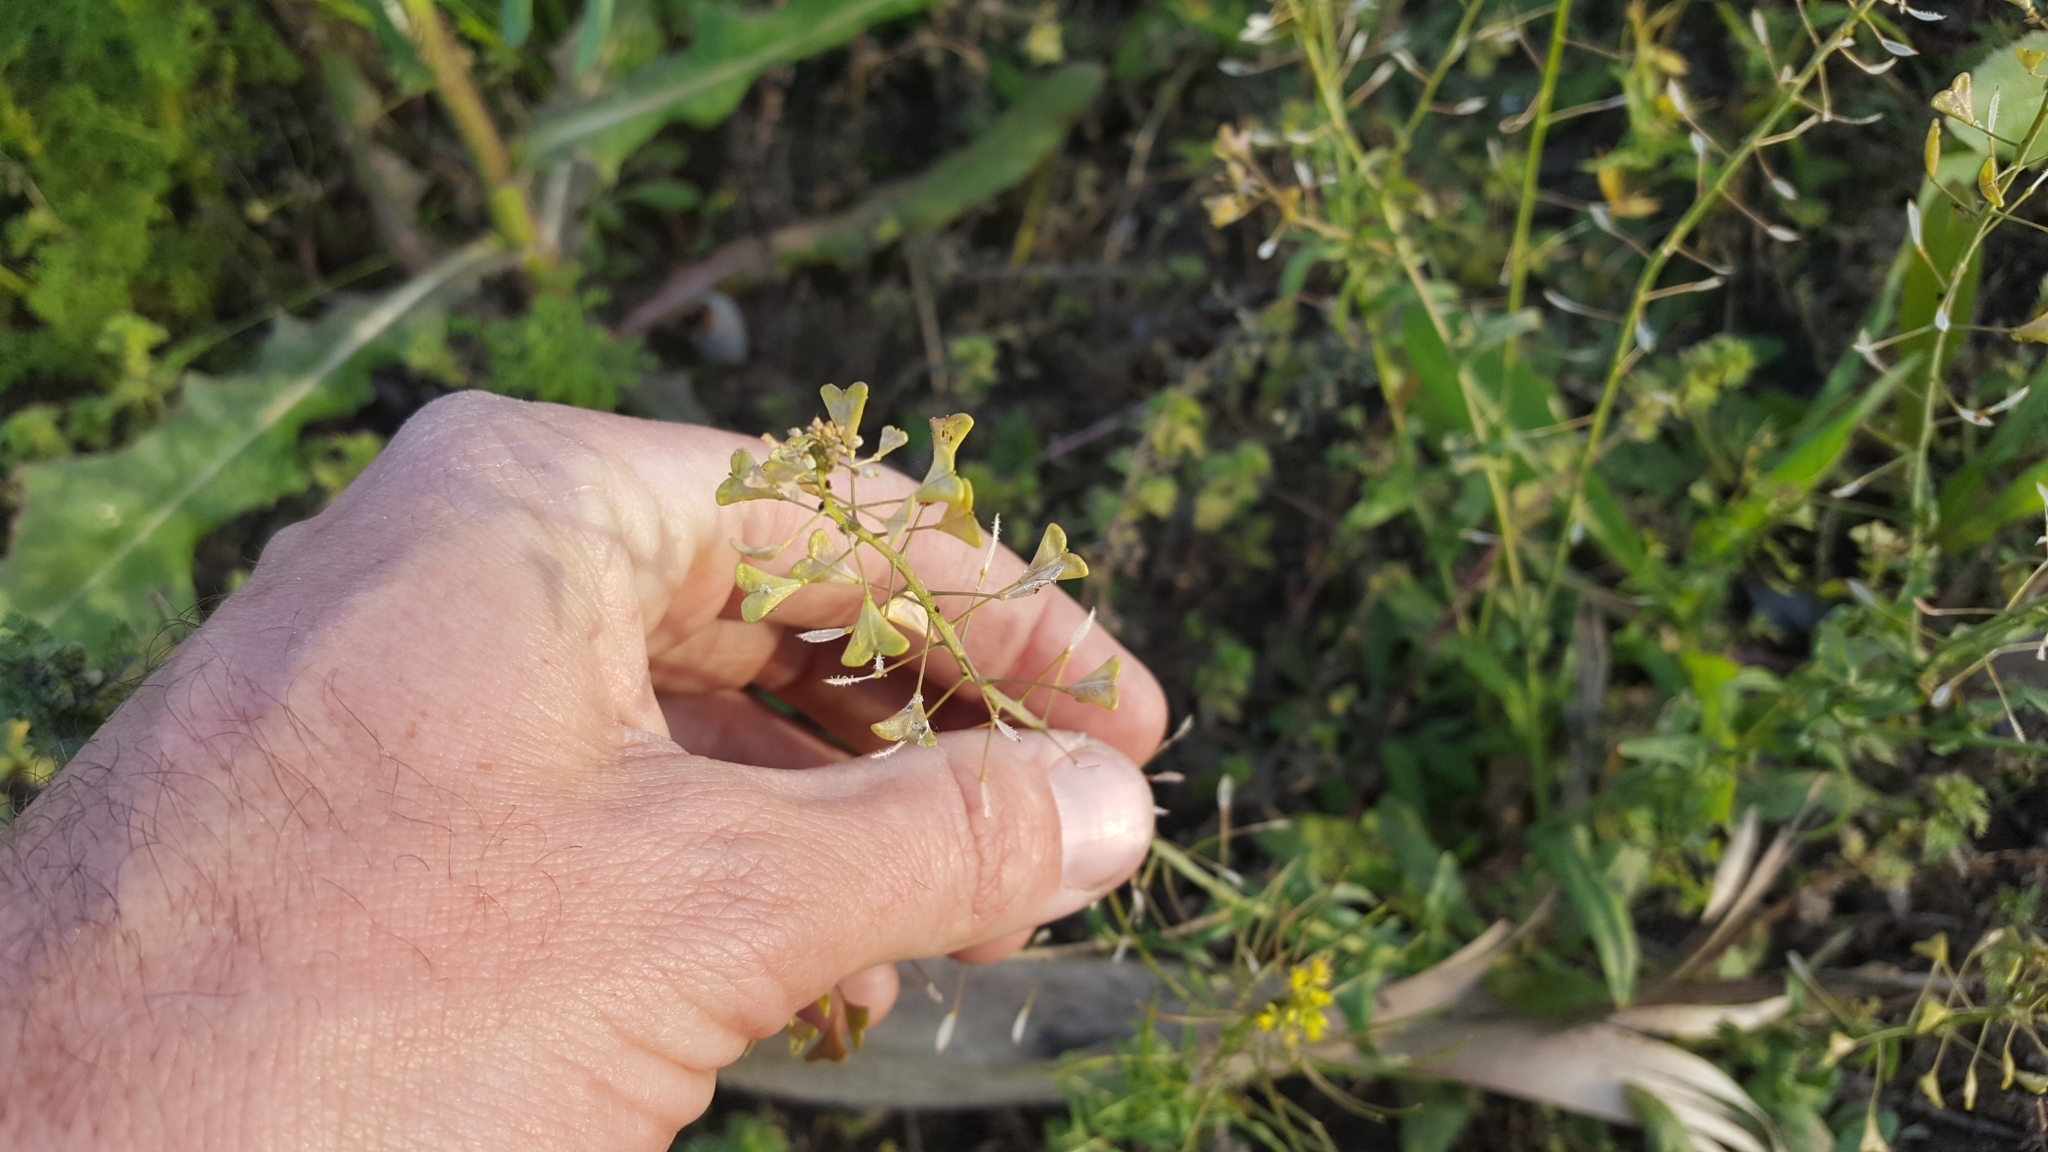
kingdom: Plantae
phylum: Tracheophyta
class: Magnoliopsida
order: Brassicales
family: Brassicaceae
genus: Capsella
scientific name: Capsella bursa-pastoris
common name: Shepherd's purse
